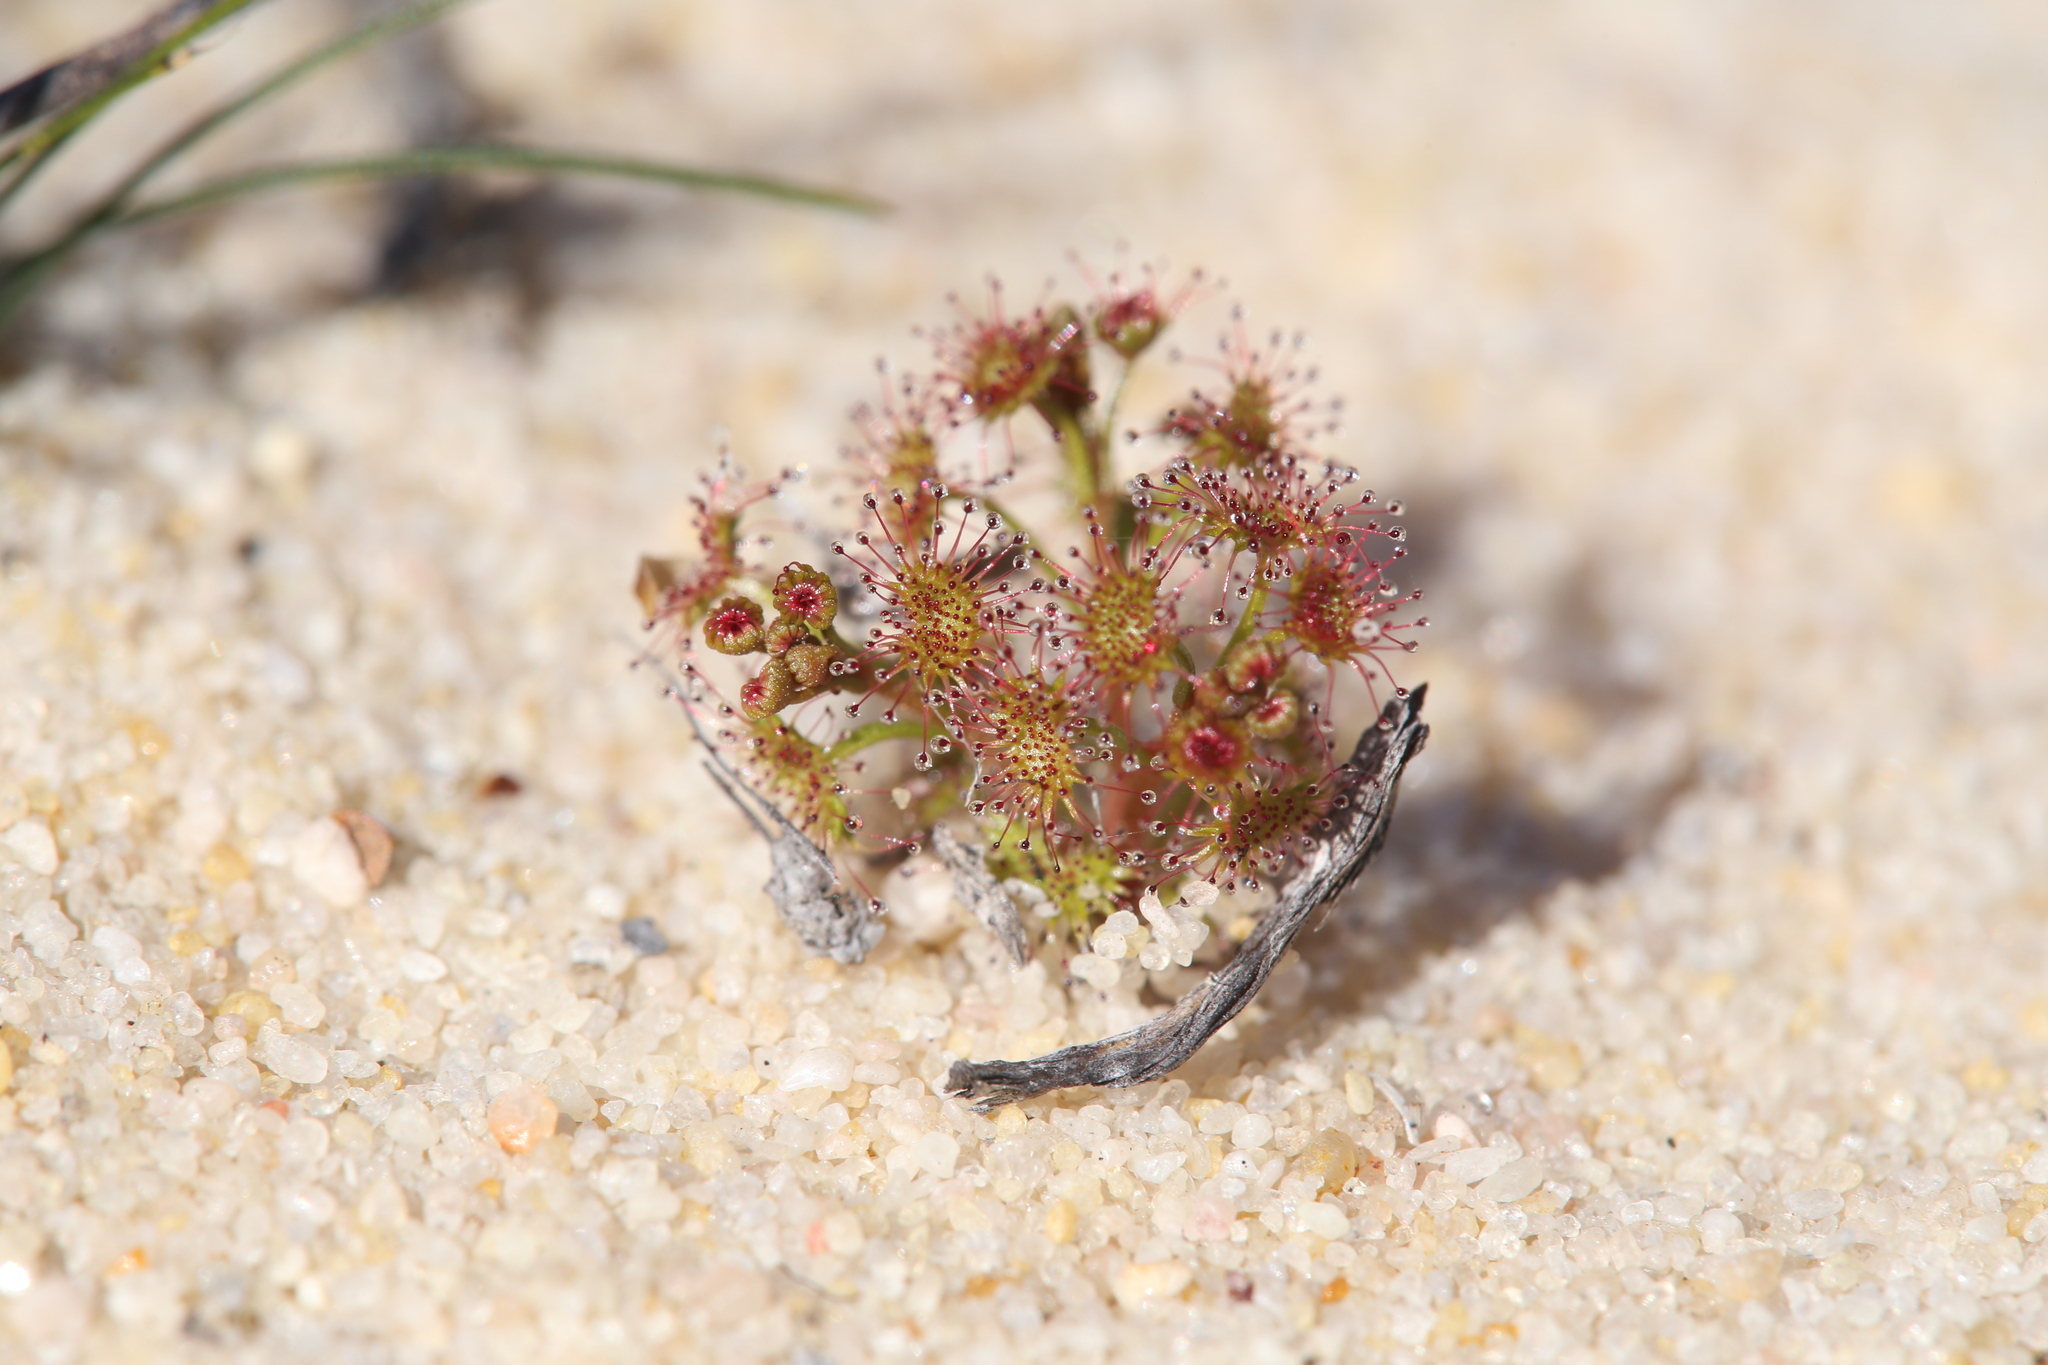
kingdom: Plantae
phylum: Tracheophyta
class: Magnoliopsida
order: Caryophyllales
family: Droseraceae
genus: Drosera
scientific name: Drosera stolonifera
